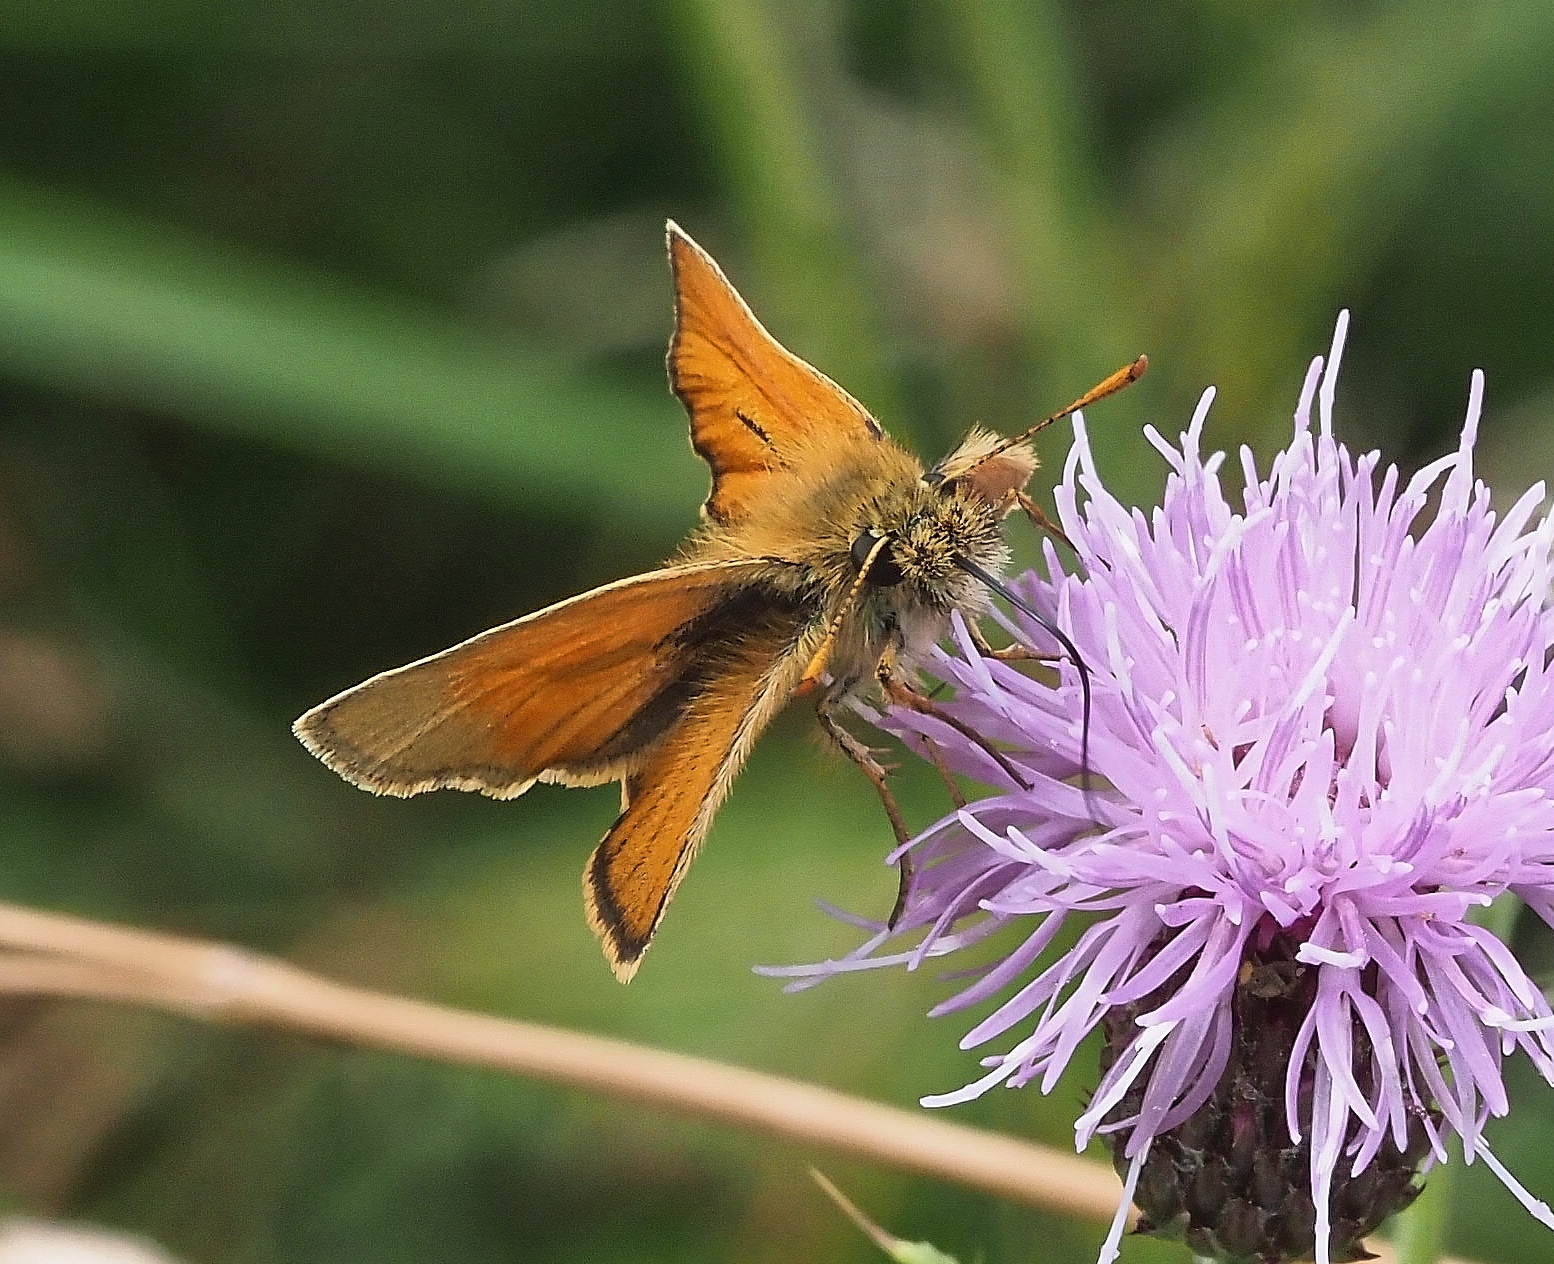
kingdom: Animalia
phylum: Arthropoda
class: Insecta
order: Lepidoptera
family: Hesperiidae
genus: Thymelicus
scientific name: Thymelicus sylvestris
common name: Small skipper
